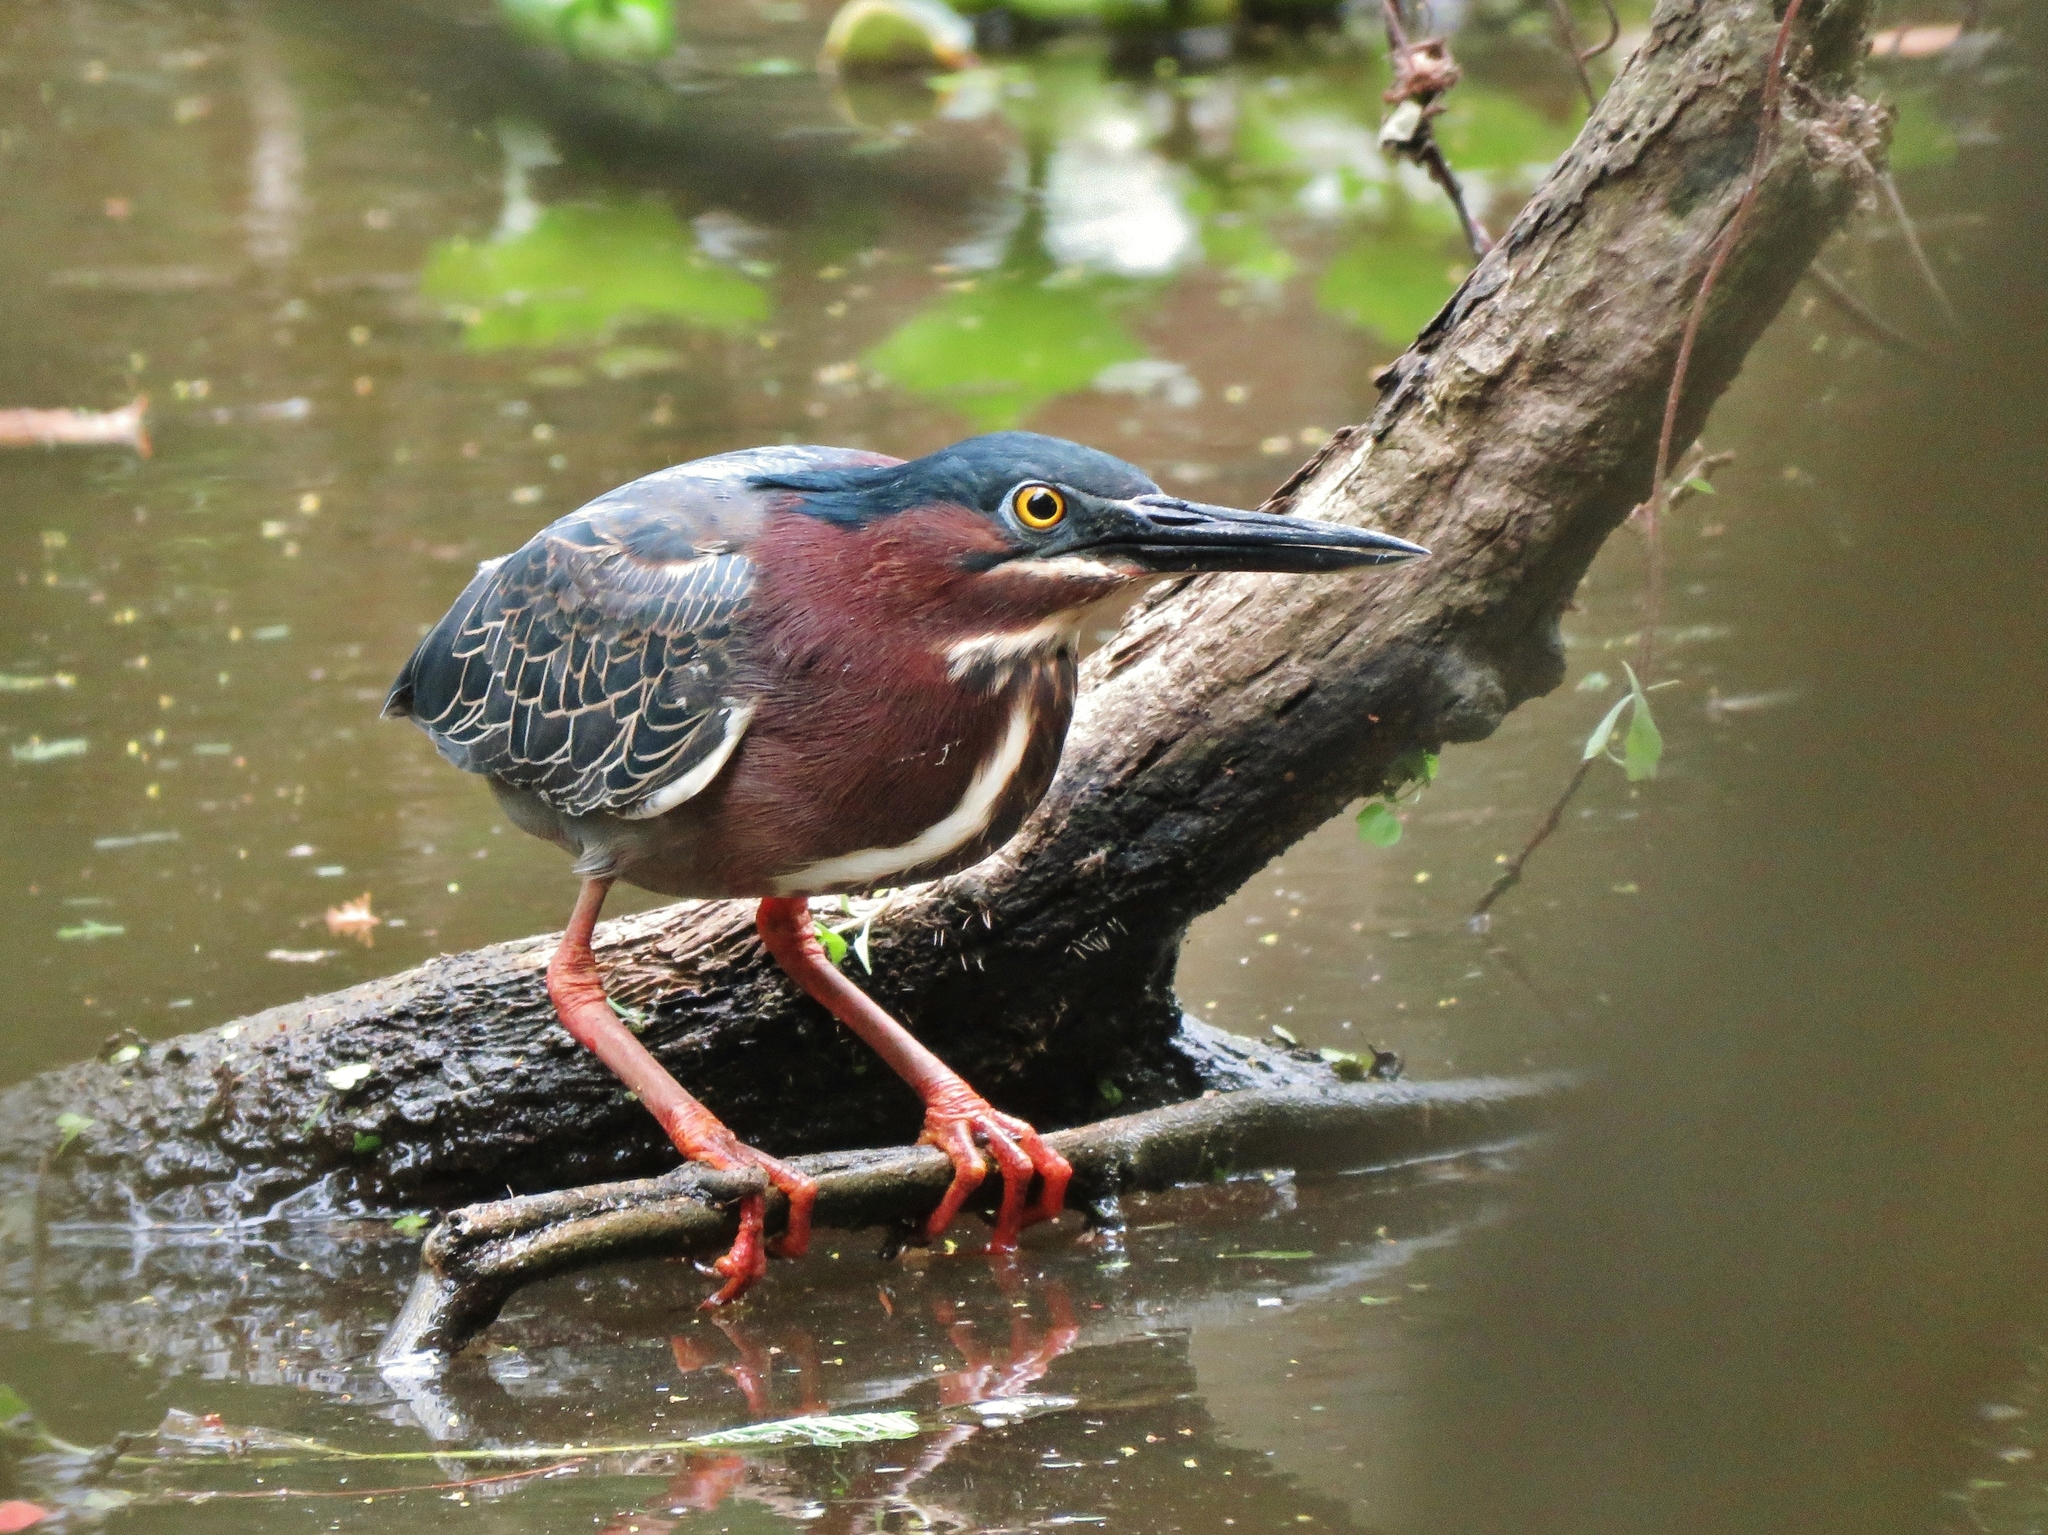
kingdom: Animalia
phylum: Chordata
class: Aves
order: Pelecaniformes
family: Ardeidae
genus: Butorides
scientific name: Butorides virescens
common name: Green heron
